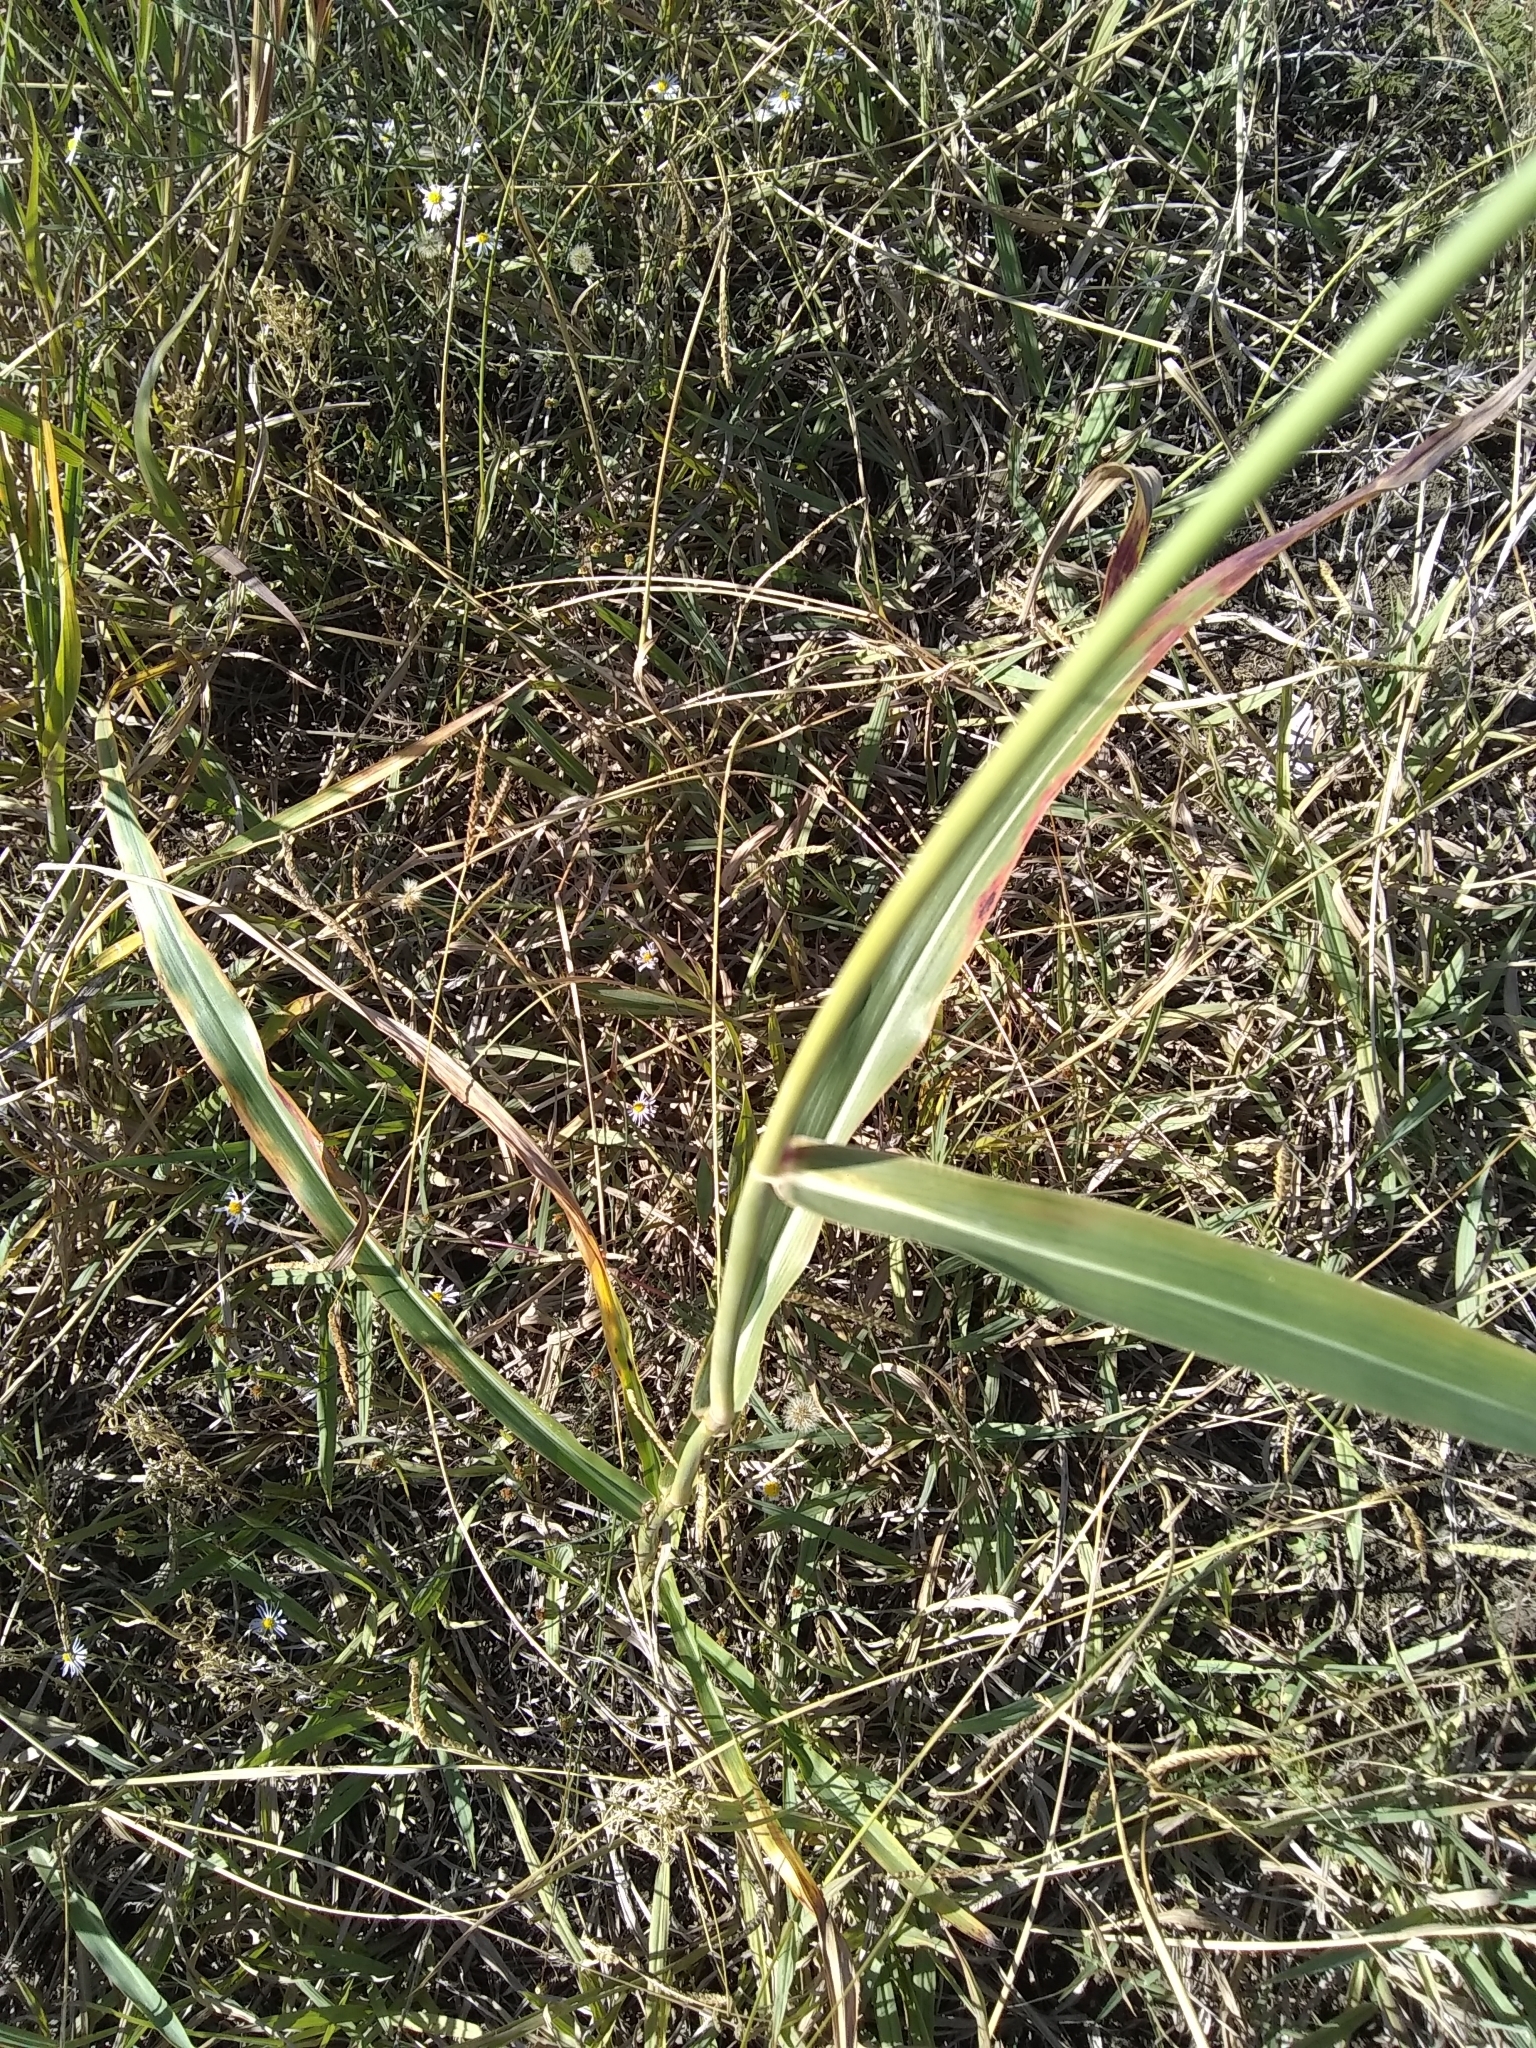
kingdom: Plantae
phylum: Tracheophyta
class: Liliopsida
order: Poales
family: Poaceae
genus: Sorghum
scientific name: Sorghum halepense
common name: Johnson-grass
